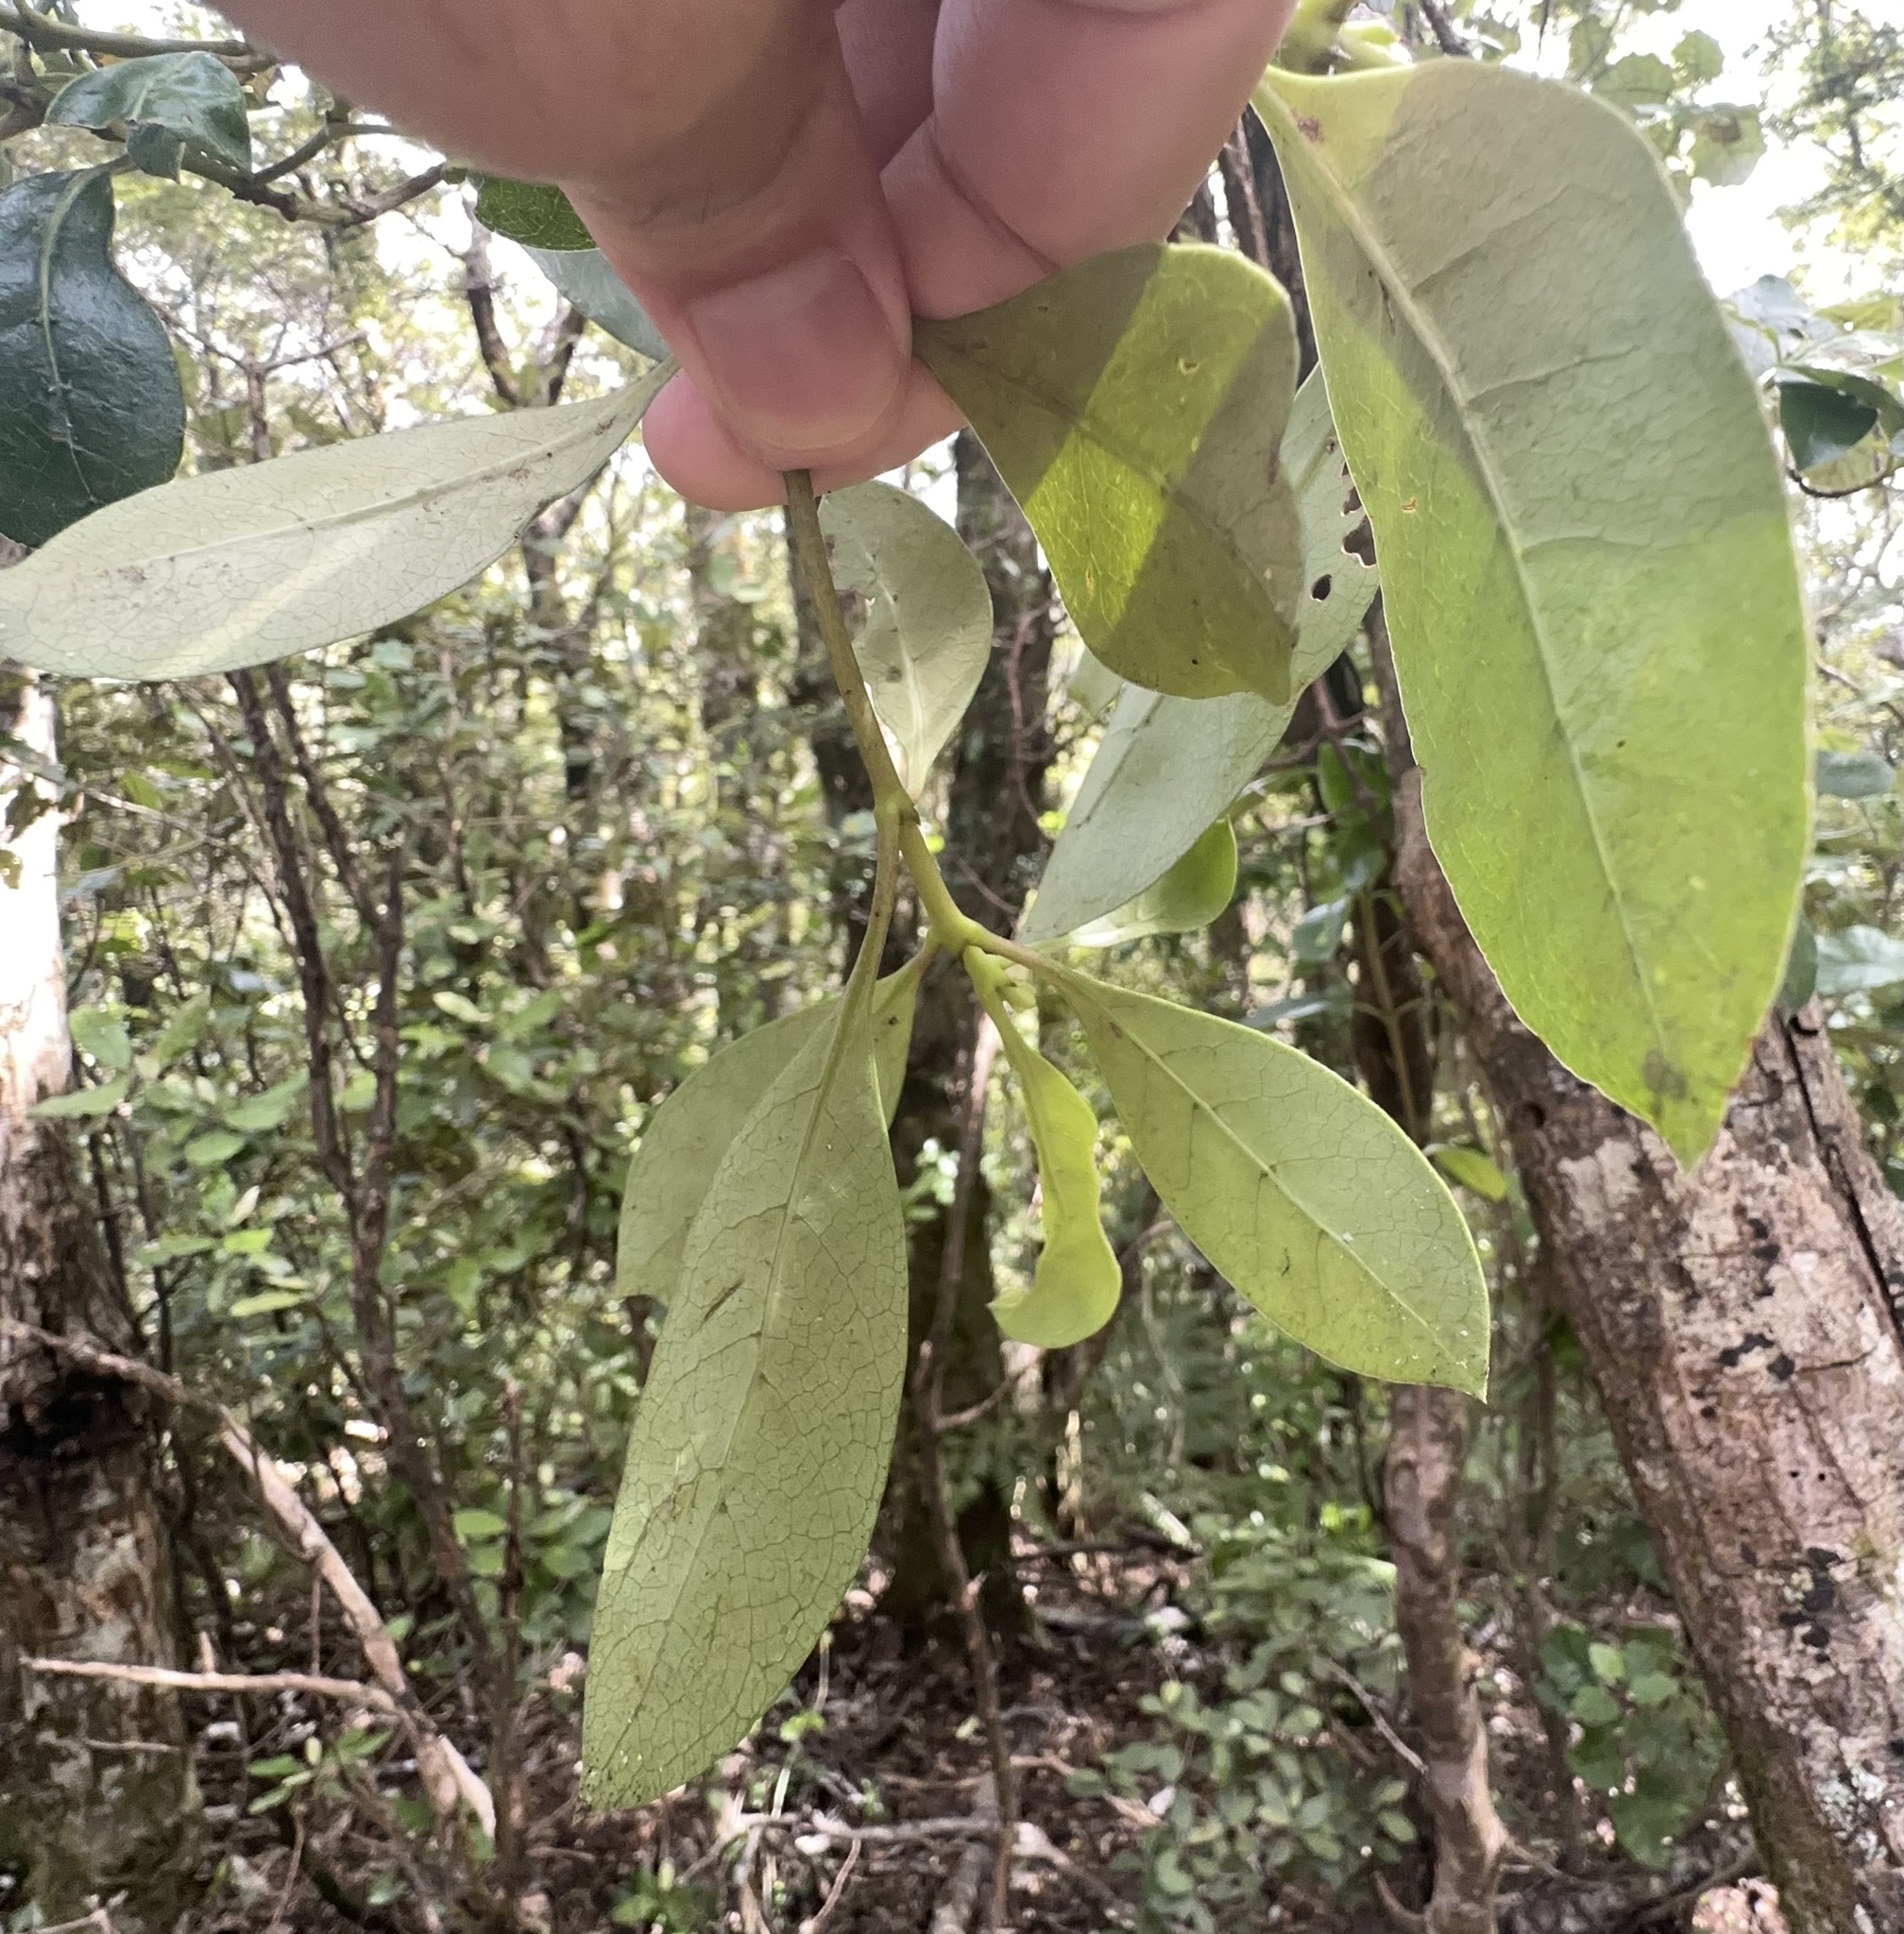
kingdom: Plantae
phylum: Tracheophyta
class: Magnoliopsida
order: Gentianales
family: Rubiaceae
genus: Coprosma
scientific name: Coprosma lucida
